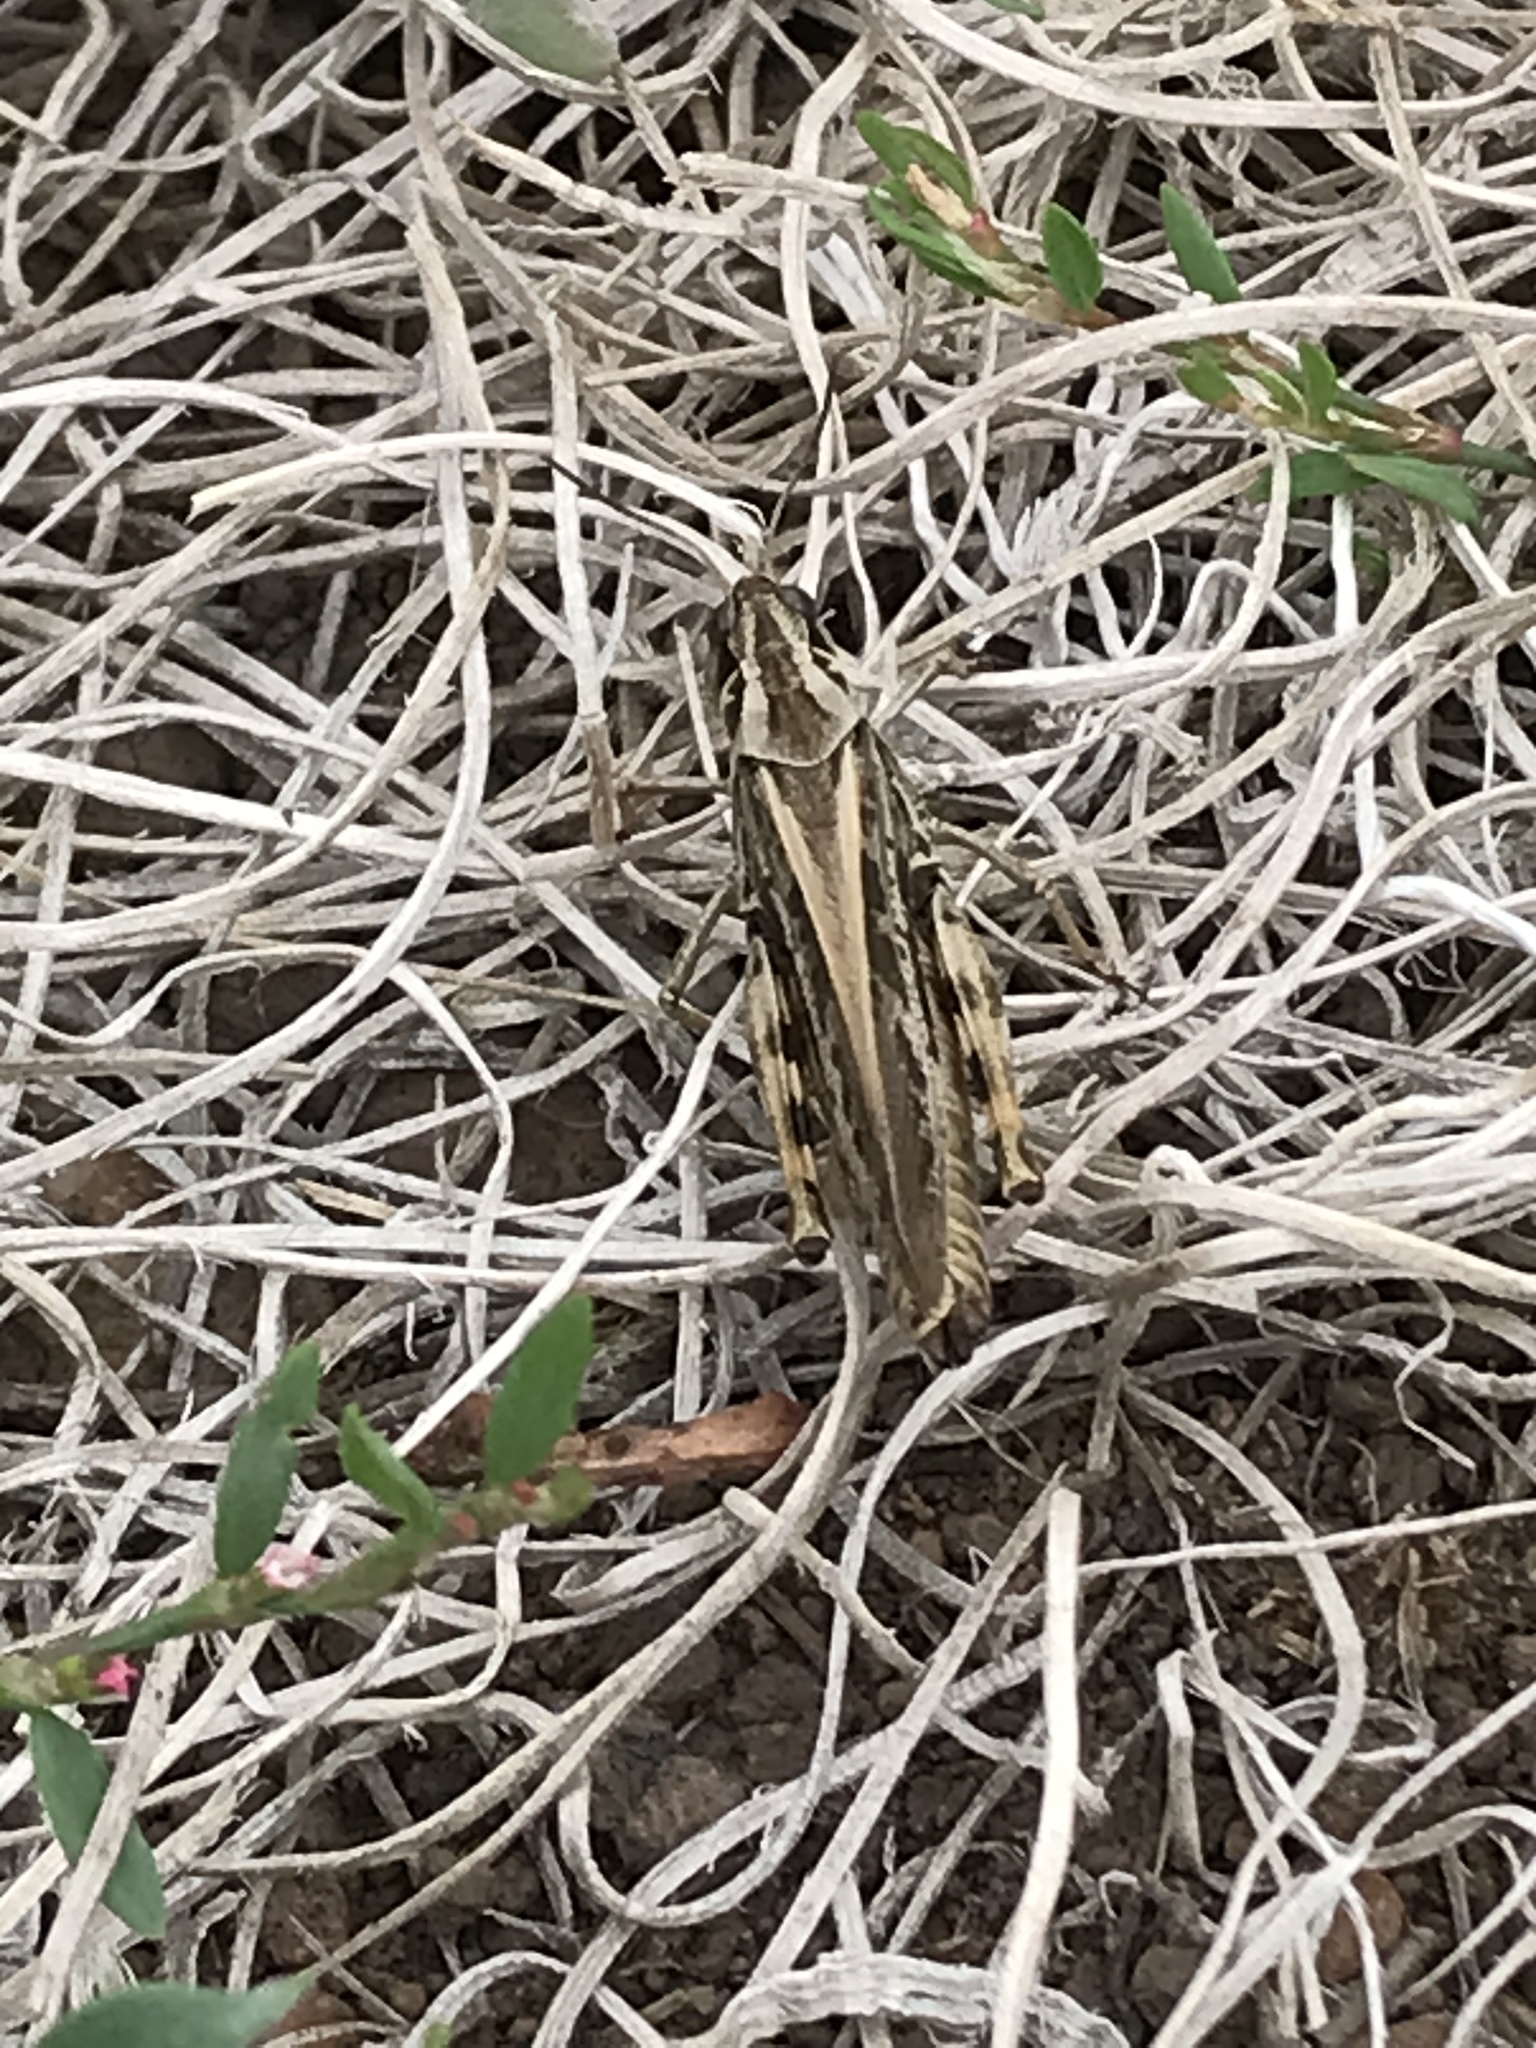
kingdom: Animalia
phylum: Arthropoda
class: Insecta
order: Orthoptera
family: Acrididae
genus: Camnula
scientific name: Camnula pellucida
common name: Clear-winged grasshopper
